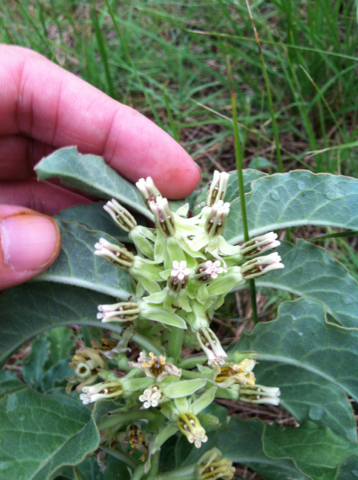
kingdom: Plantae
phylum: Tracheophyta
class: Magnoliopsida
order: Gentianales
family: Apocynaceae
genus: Asclepias
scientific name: Asclepias oenotheroides
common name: Zizotes milkweed
